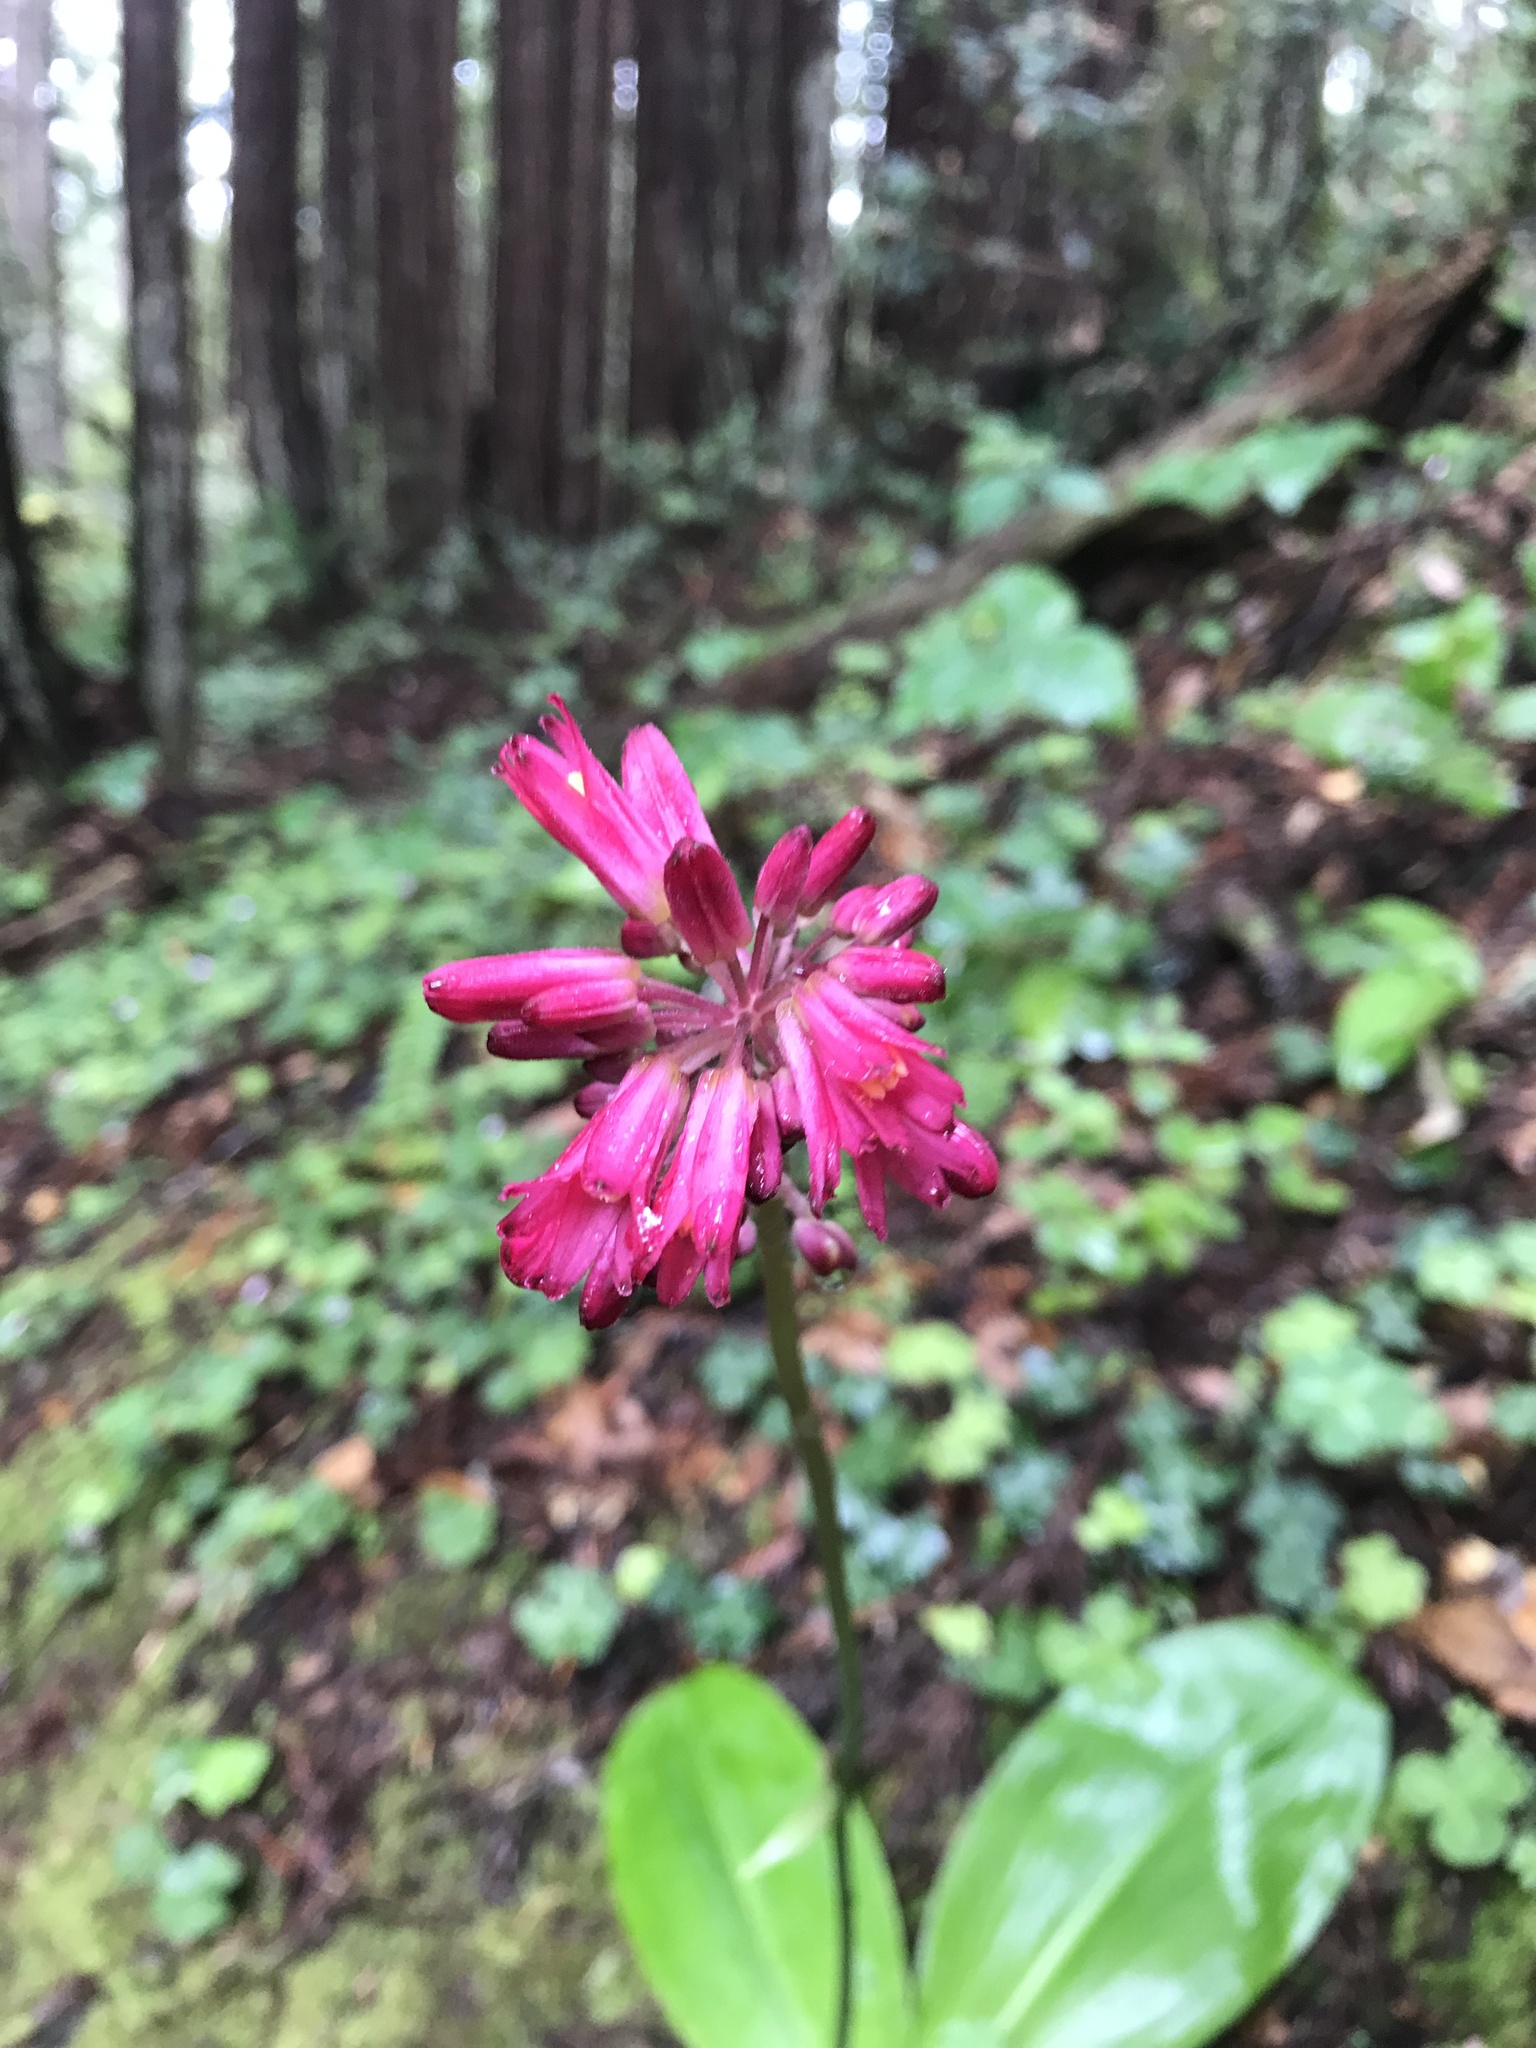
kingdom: Plantae
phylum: Tracheophyta
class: Liliopsida
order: Liliales
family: Liliaceae
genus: Clintonia
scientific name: Clintonia andrewsiana
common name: Red clintonia
